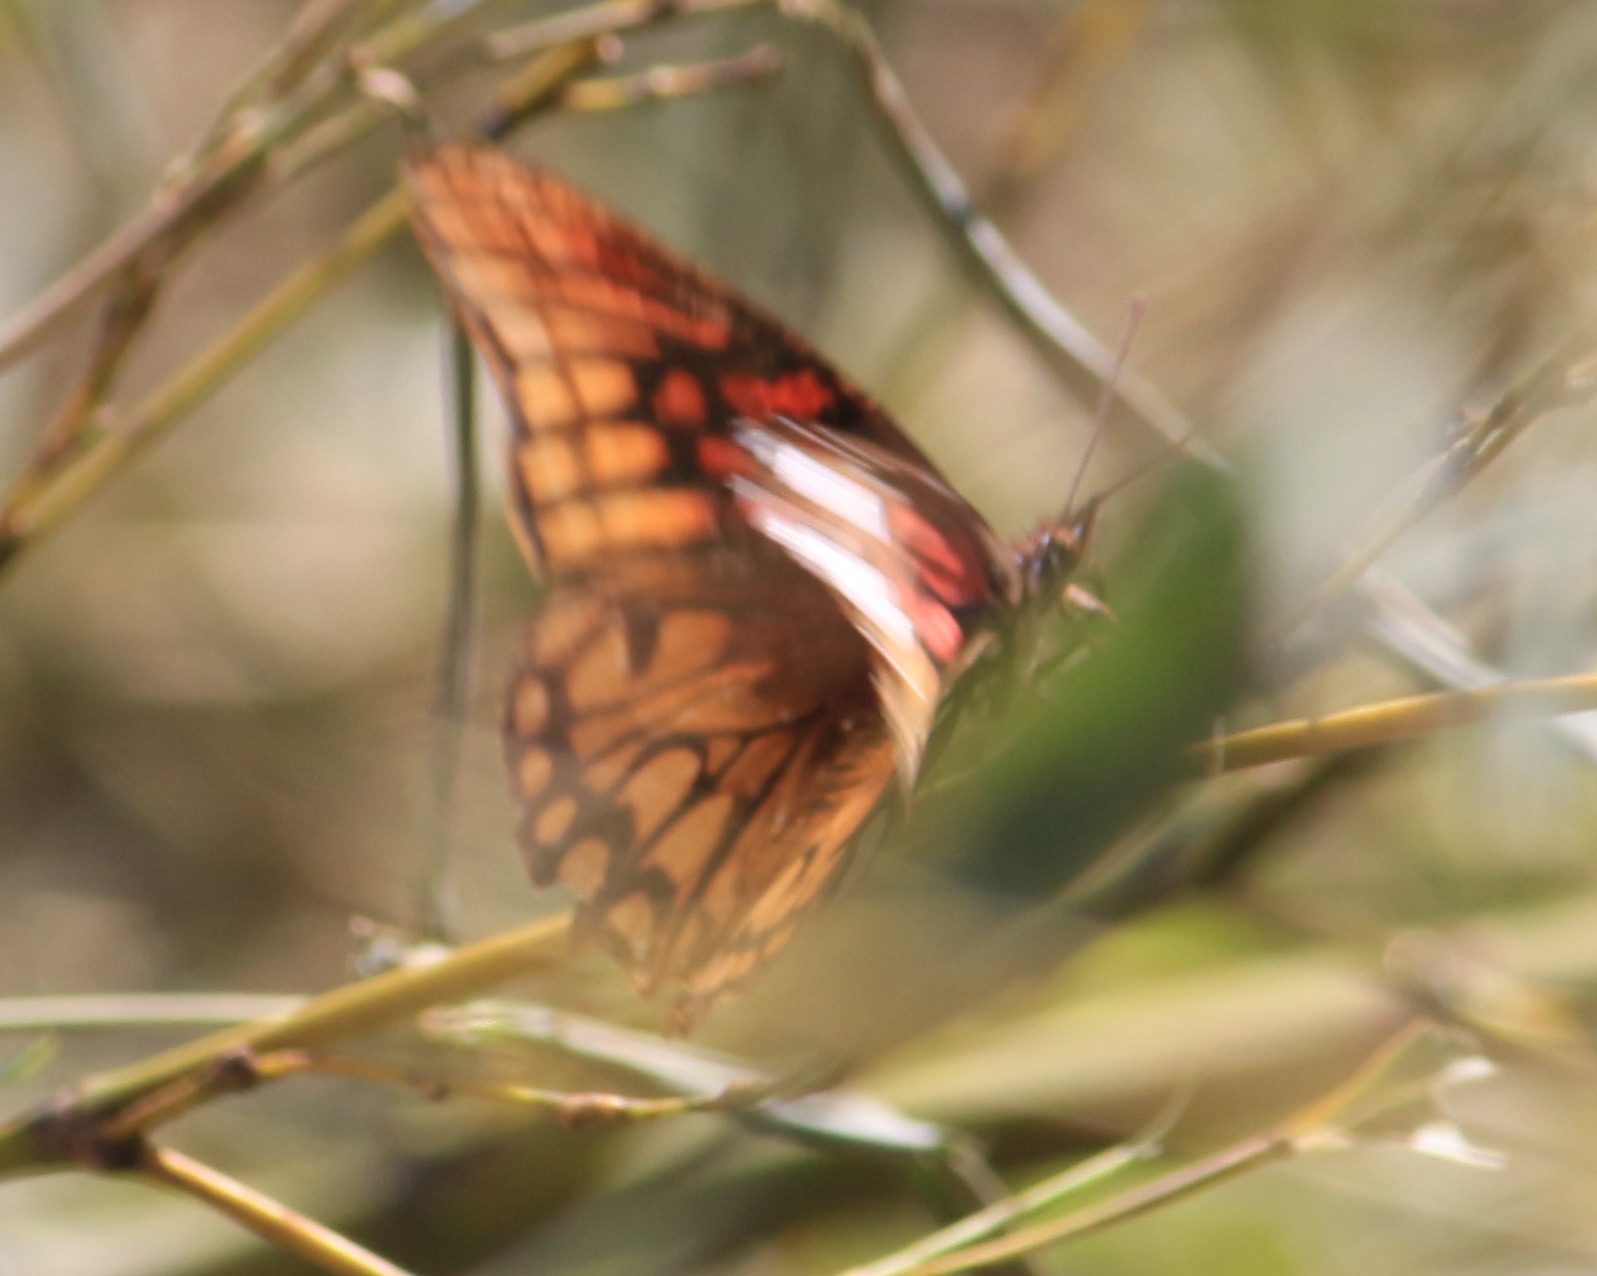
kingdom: Animalia
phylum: Arthropoda
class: Insecta
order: Lepidoptera
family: Nymphalidae
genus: Dione
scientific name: Dione moneta
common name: Mexican silverspot
